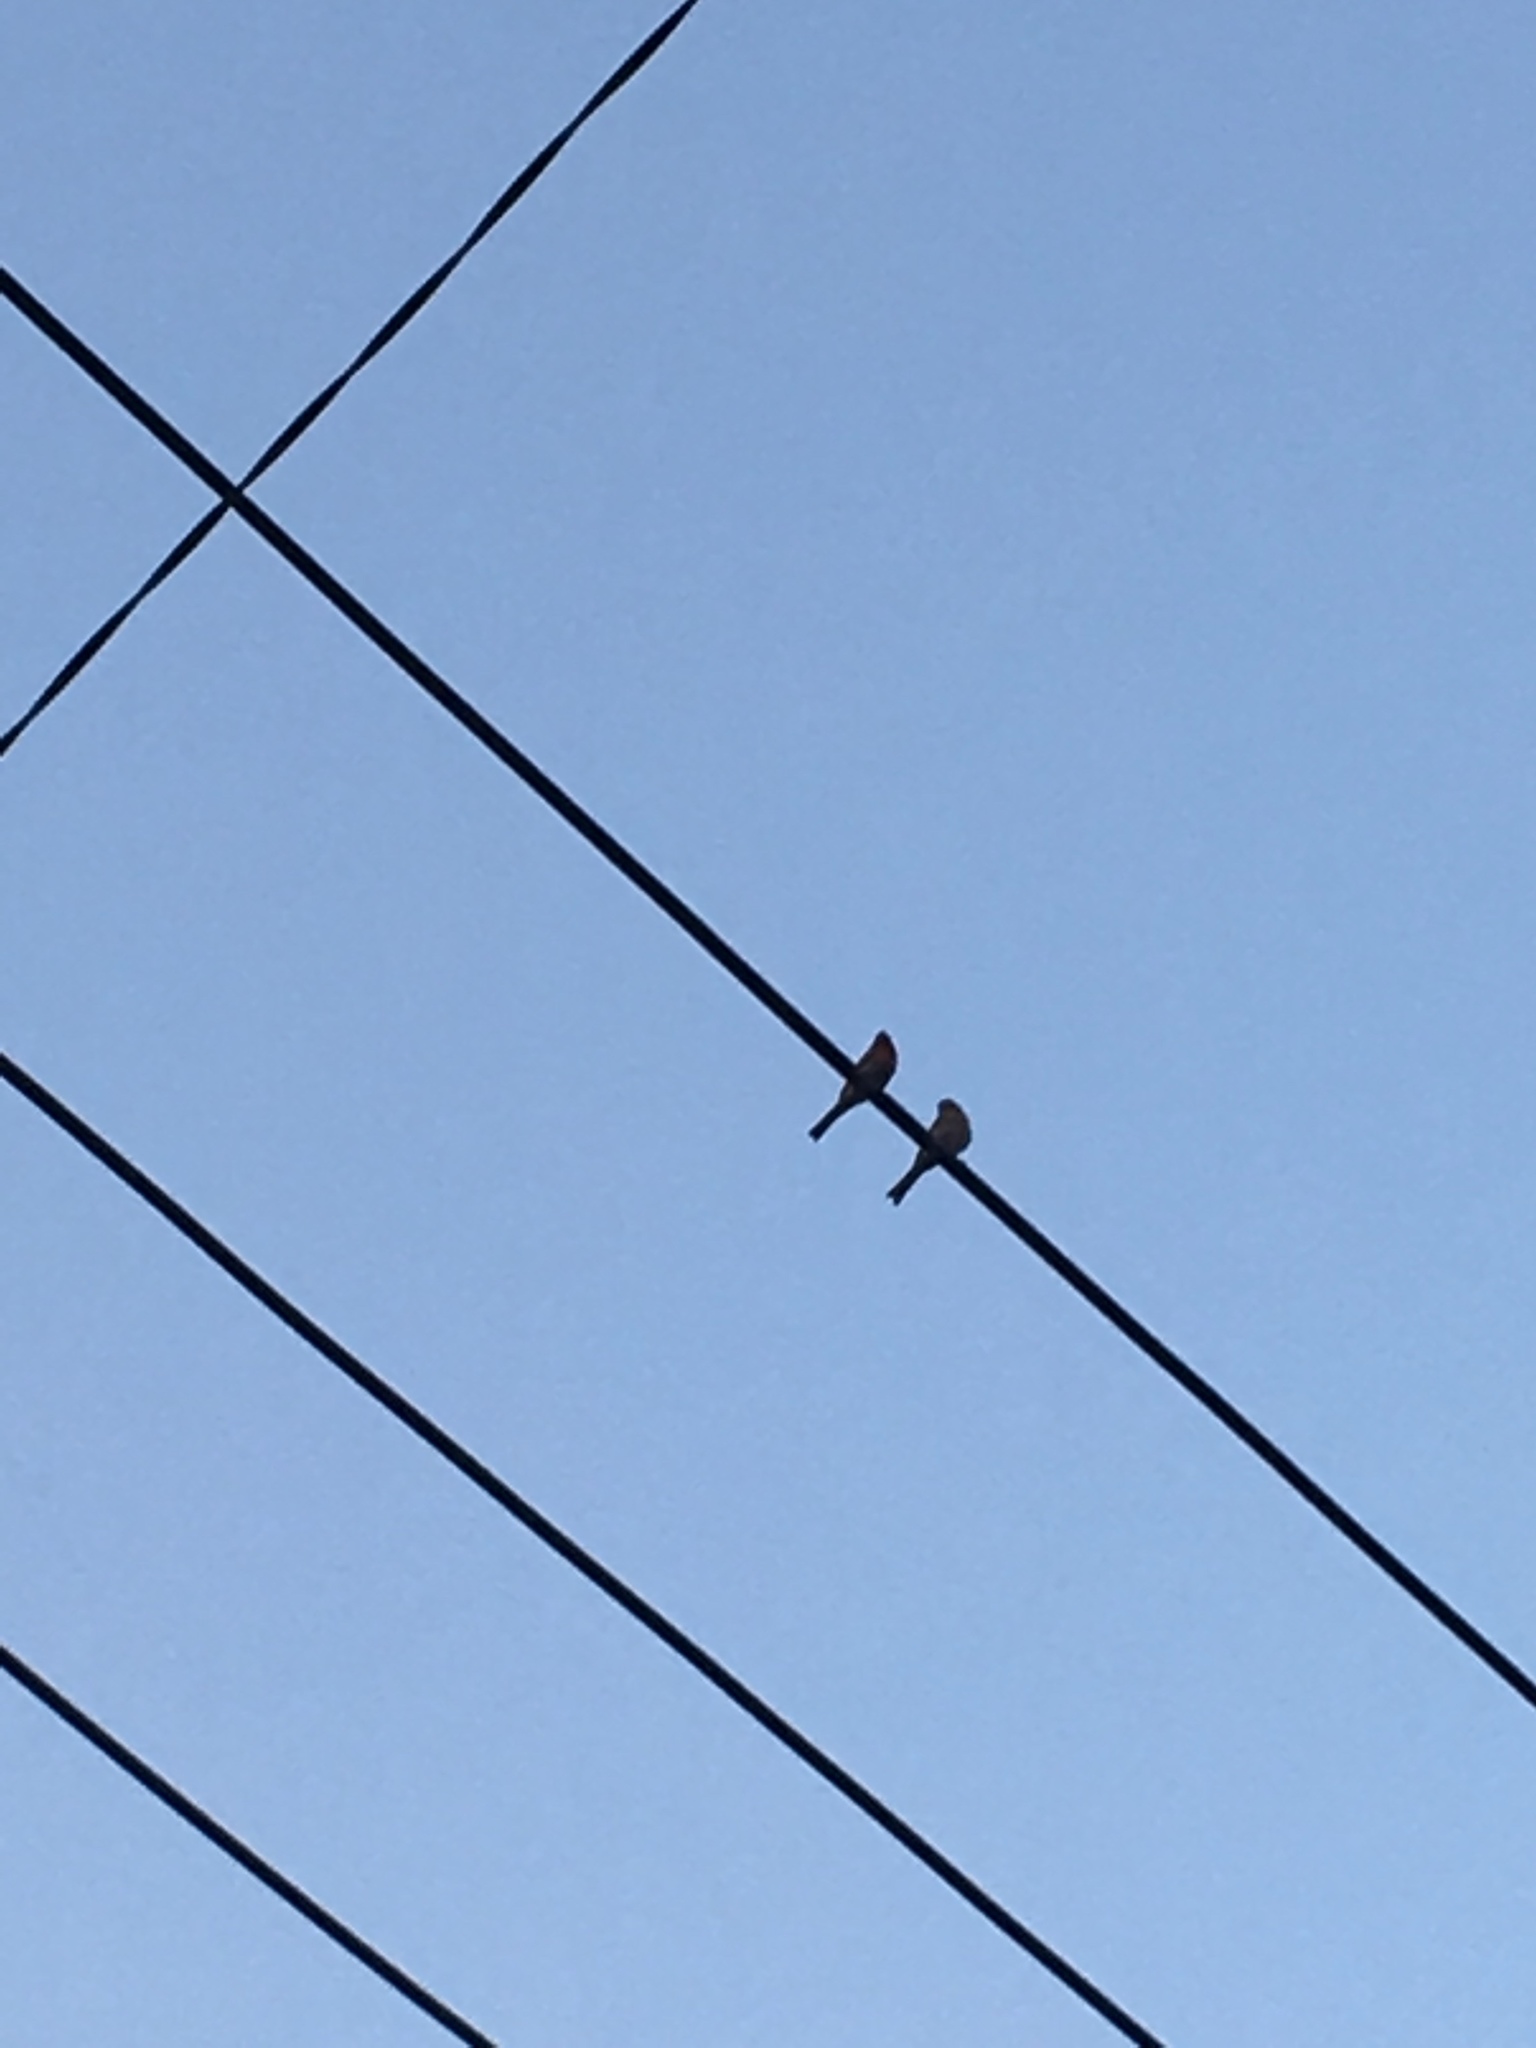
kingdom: Animalia
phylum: Chordata
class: Aves
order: Passeriformes
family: Fringillidae
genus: Haemorhous
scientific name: Haemorhous mexicanus
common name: House finch
